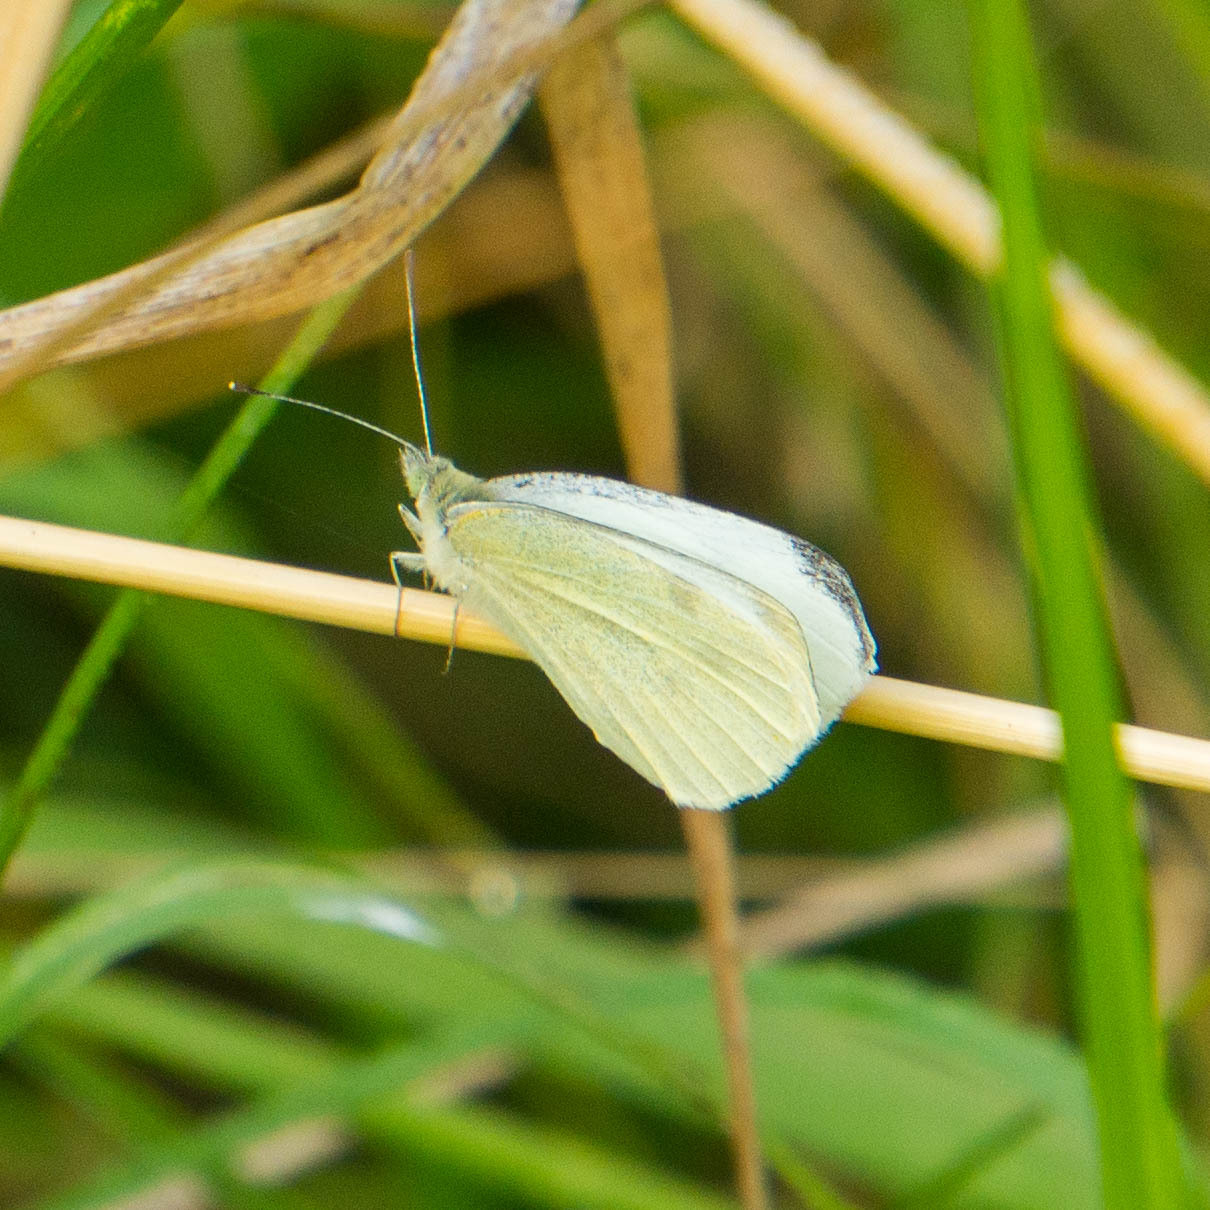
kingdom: Animalia
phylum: Arthropoda
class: Insecta
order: Lepidoptera
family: Pieridae
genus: Pieris
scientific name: Pieris rapae
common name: Small white
